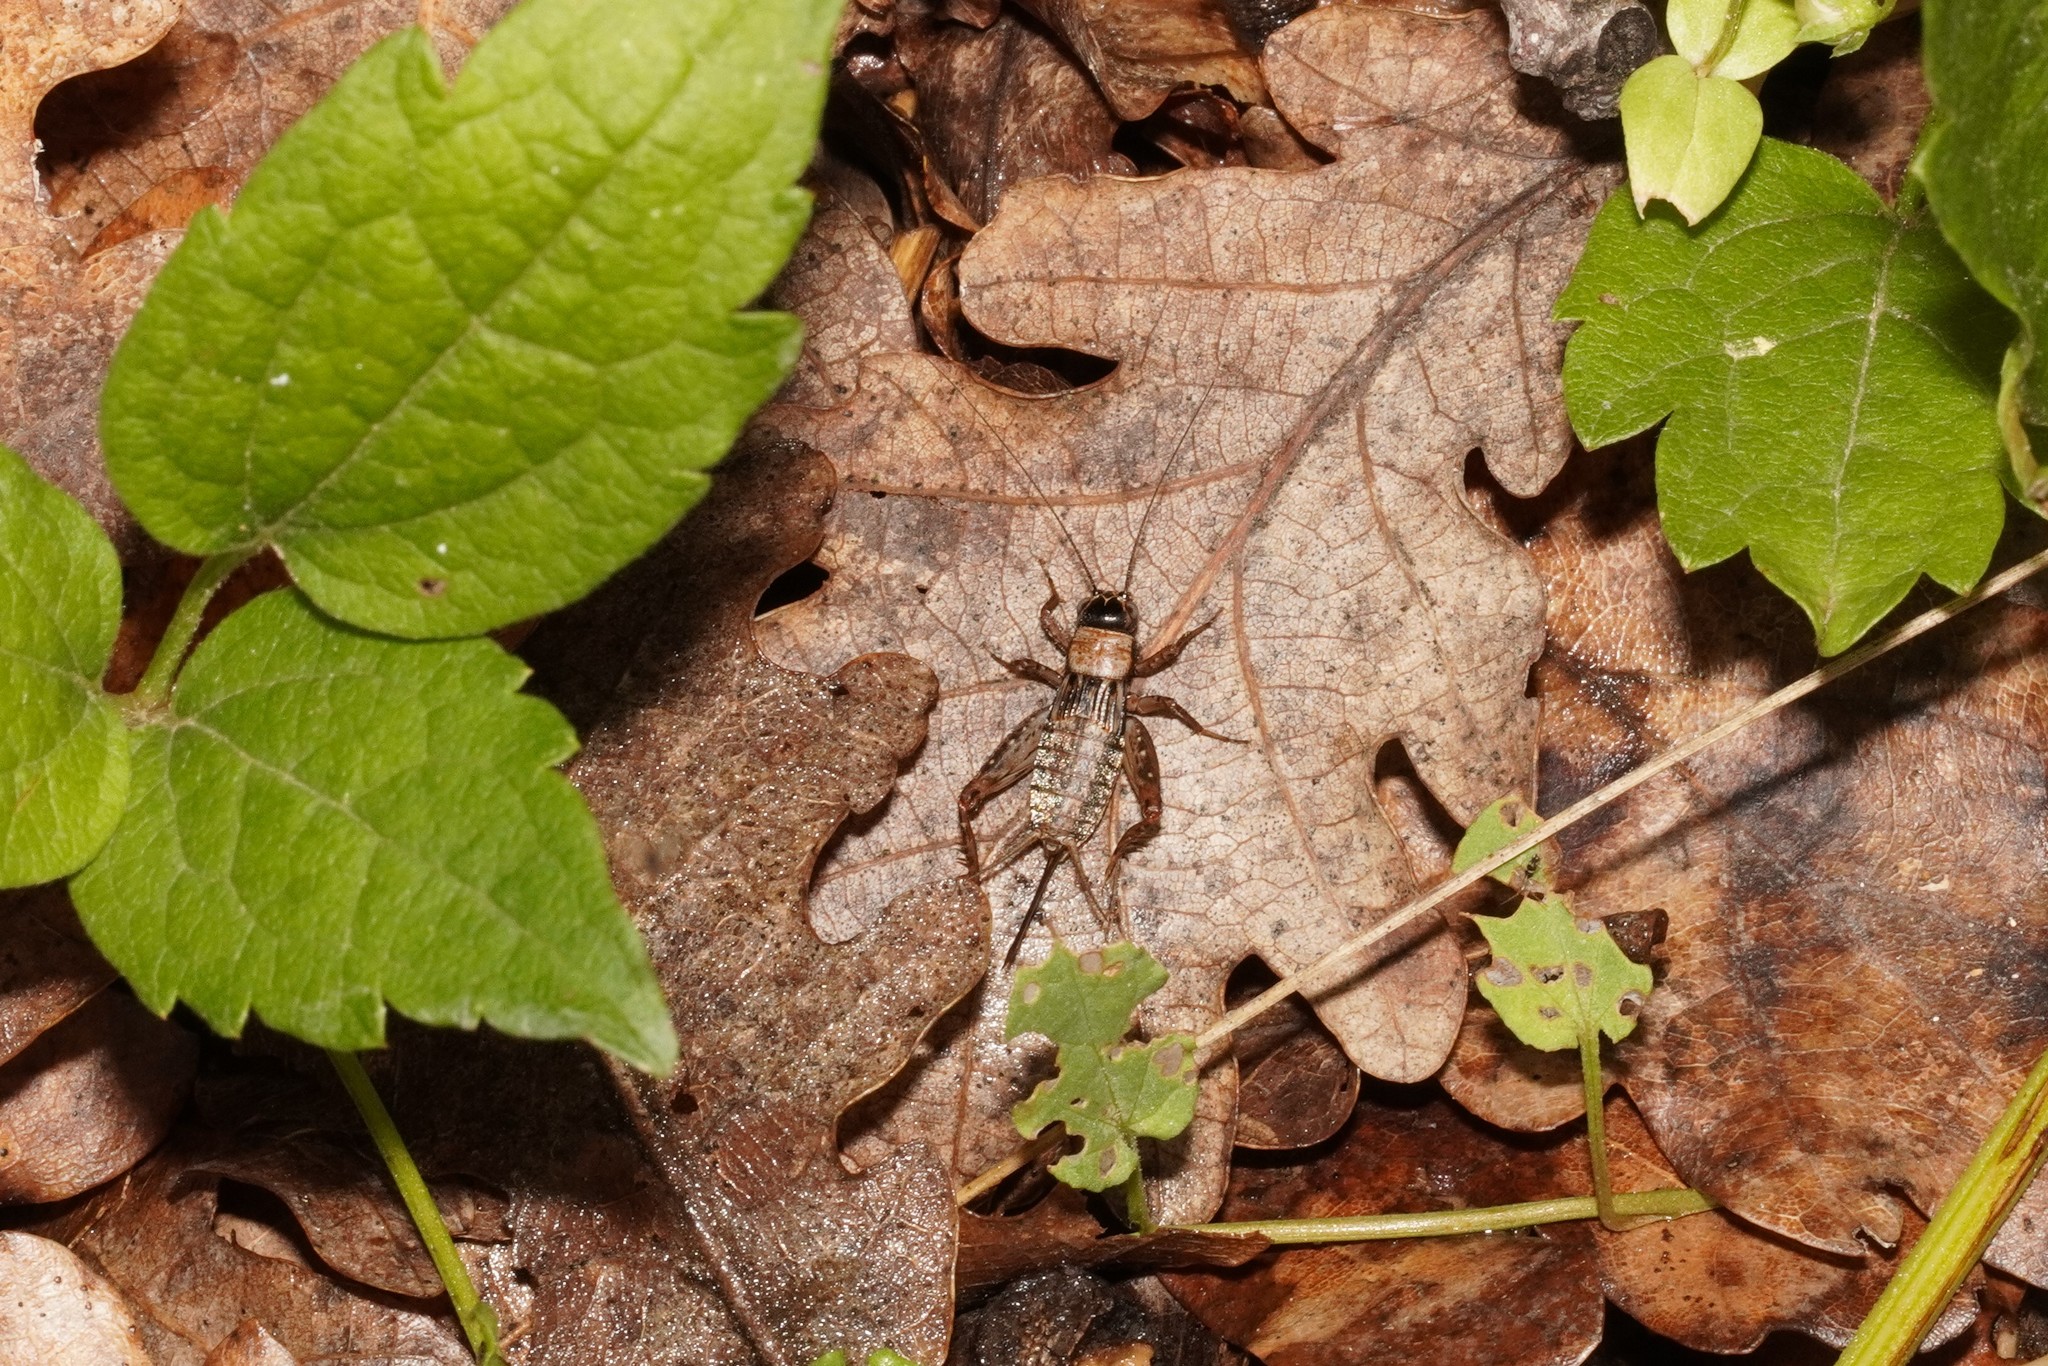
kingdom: Animalia
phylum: Arthropoda
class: Insecta
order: Orthoptera
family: Trigonidiidae
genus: Nemobius
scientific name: Nemobius sylvestris
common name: Wood-cricket
